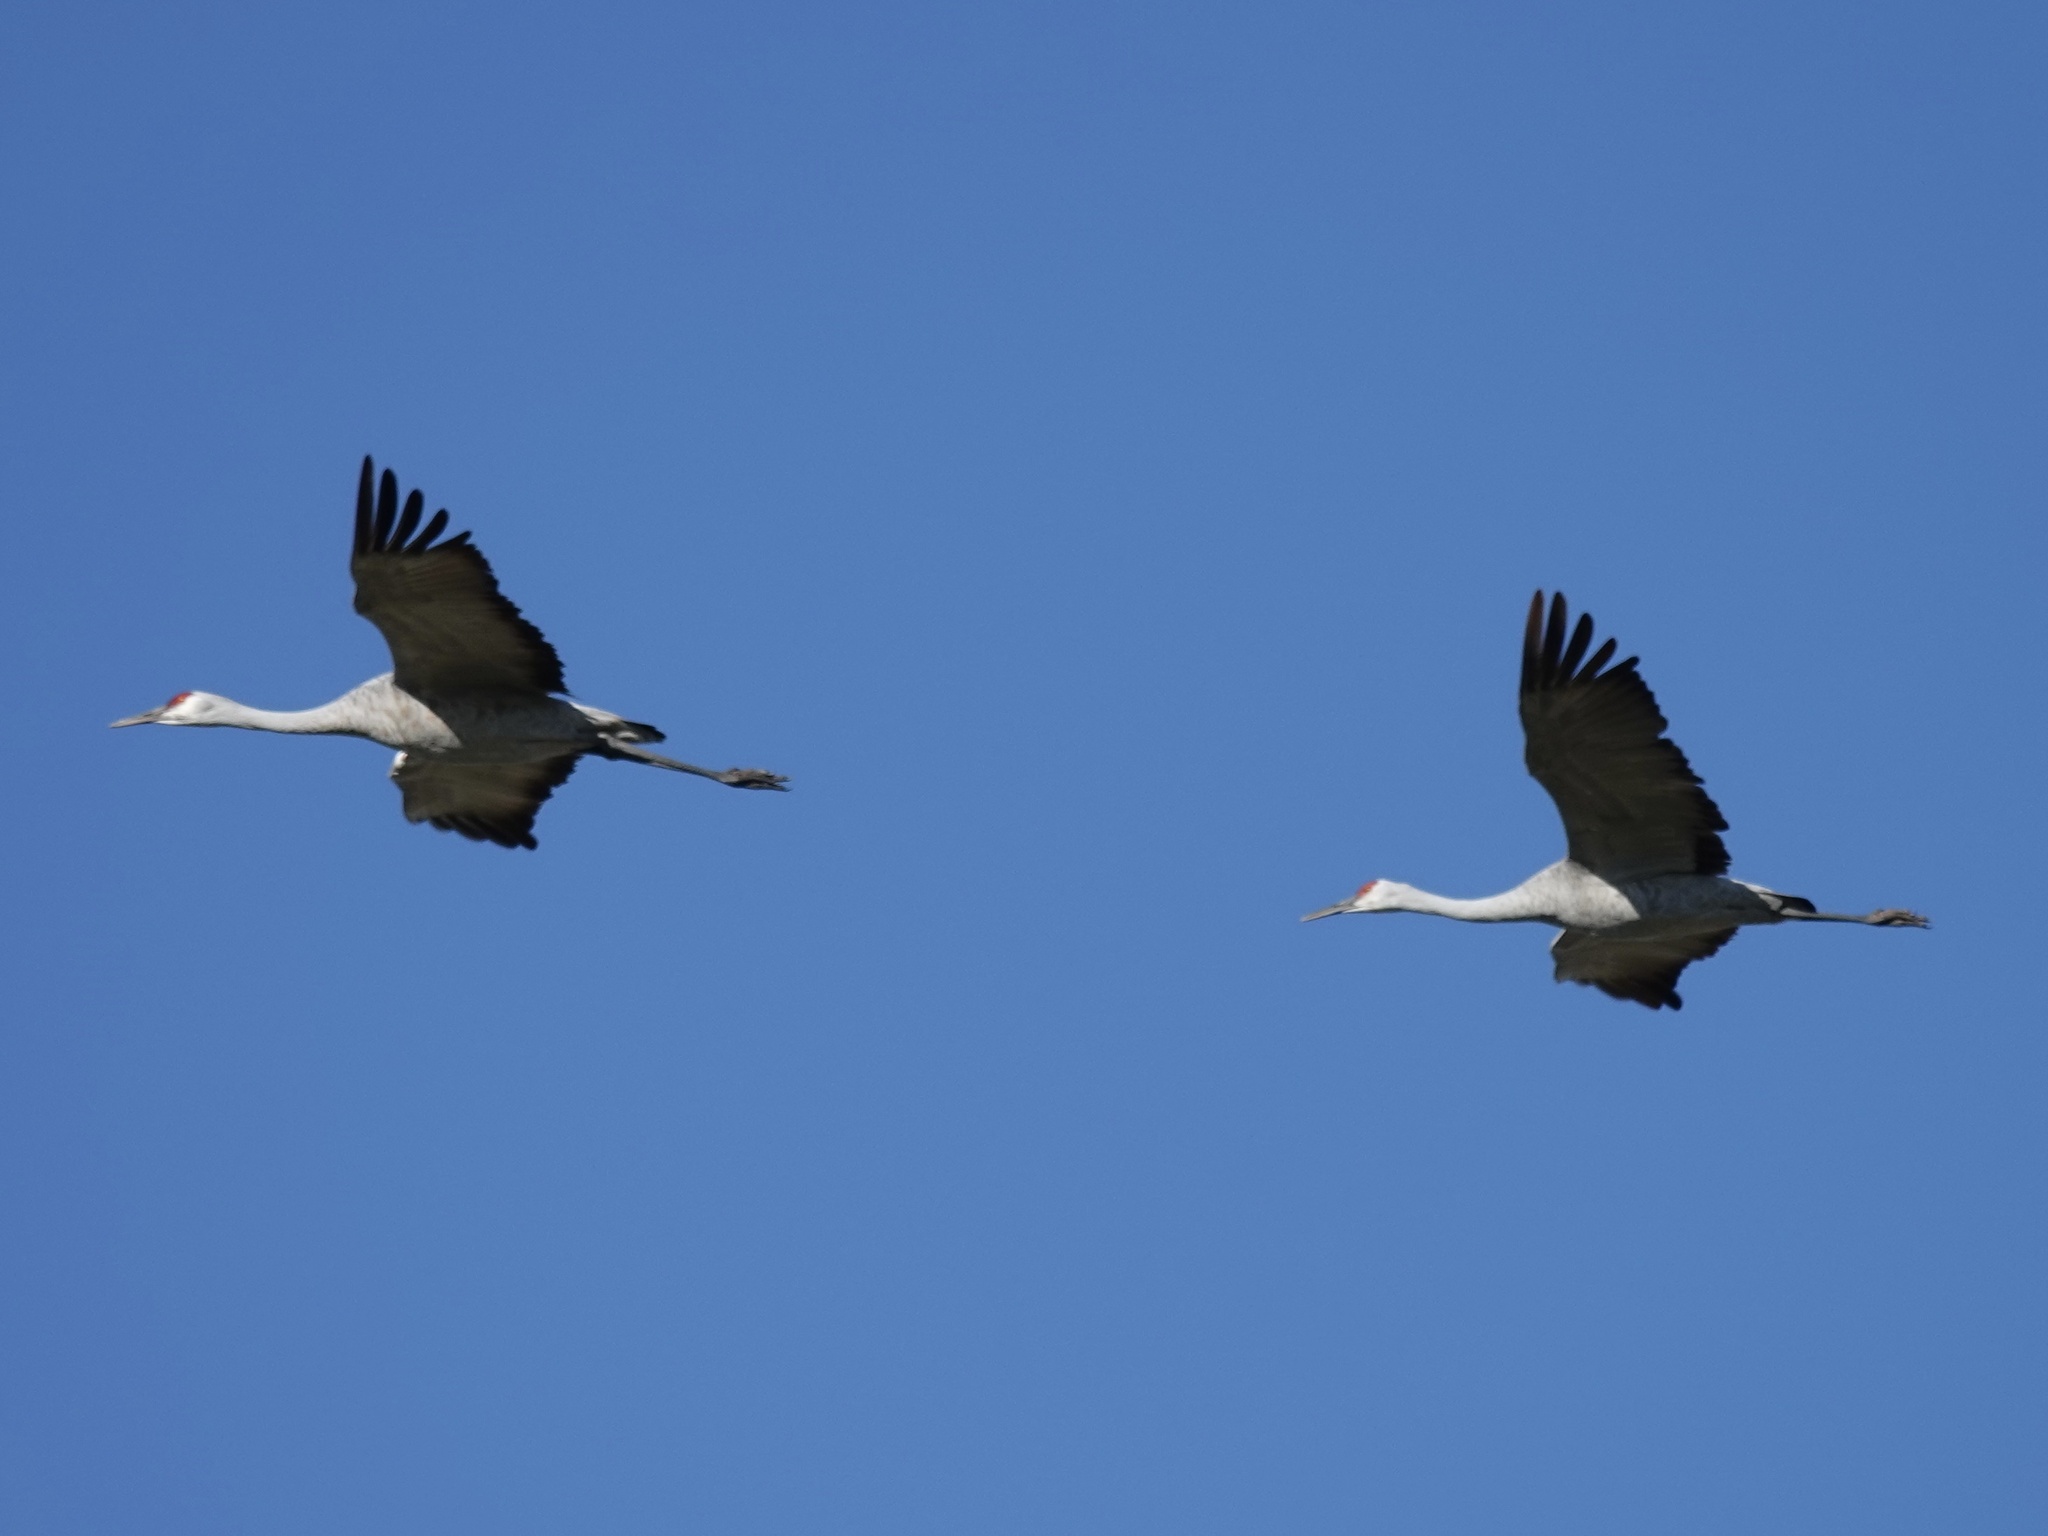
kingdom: Animalia
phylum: Chordata
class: Aves
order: Gruiformes
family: Gruidae
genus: Grus
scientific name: Grus canadensis
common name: Sandhill crane
